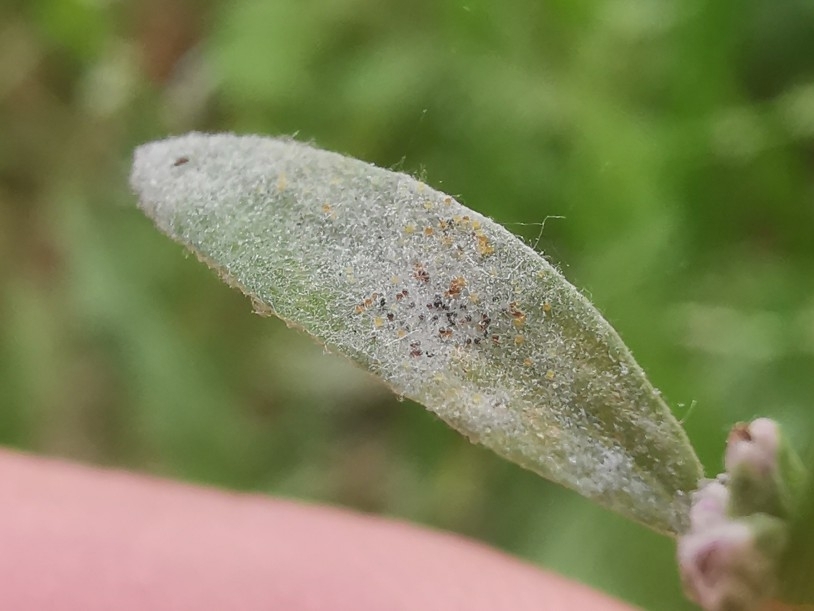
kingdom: Fungi
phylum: Ascomycota
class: Leotiomycetes
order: Helotiales
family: Erysiphaceae
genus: Erysiphe
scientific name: Erysiphe polygoni
